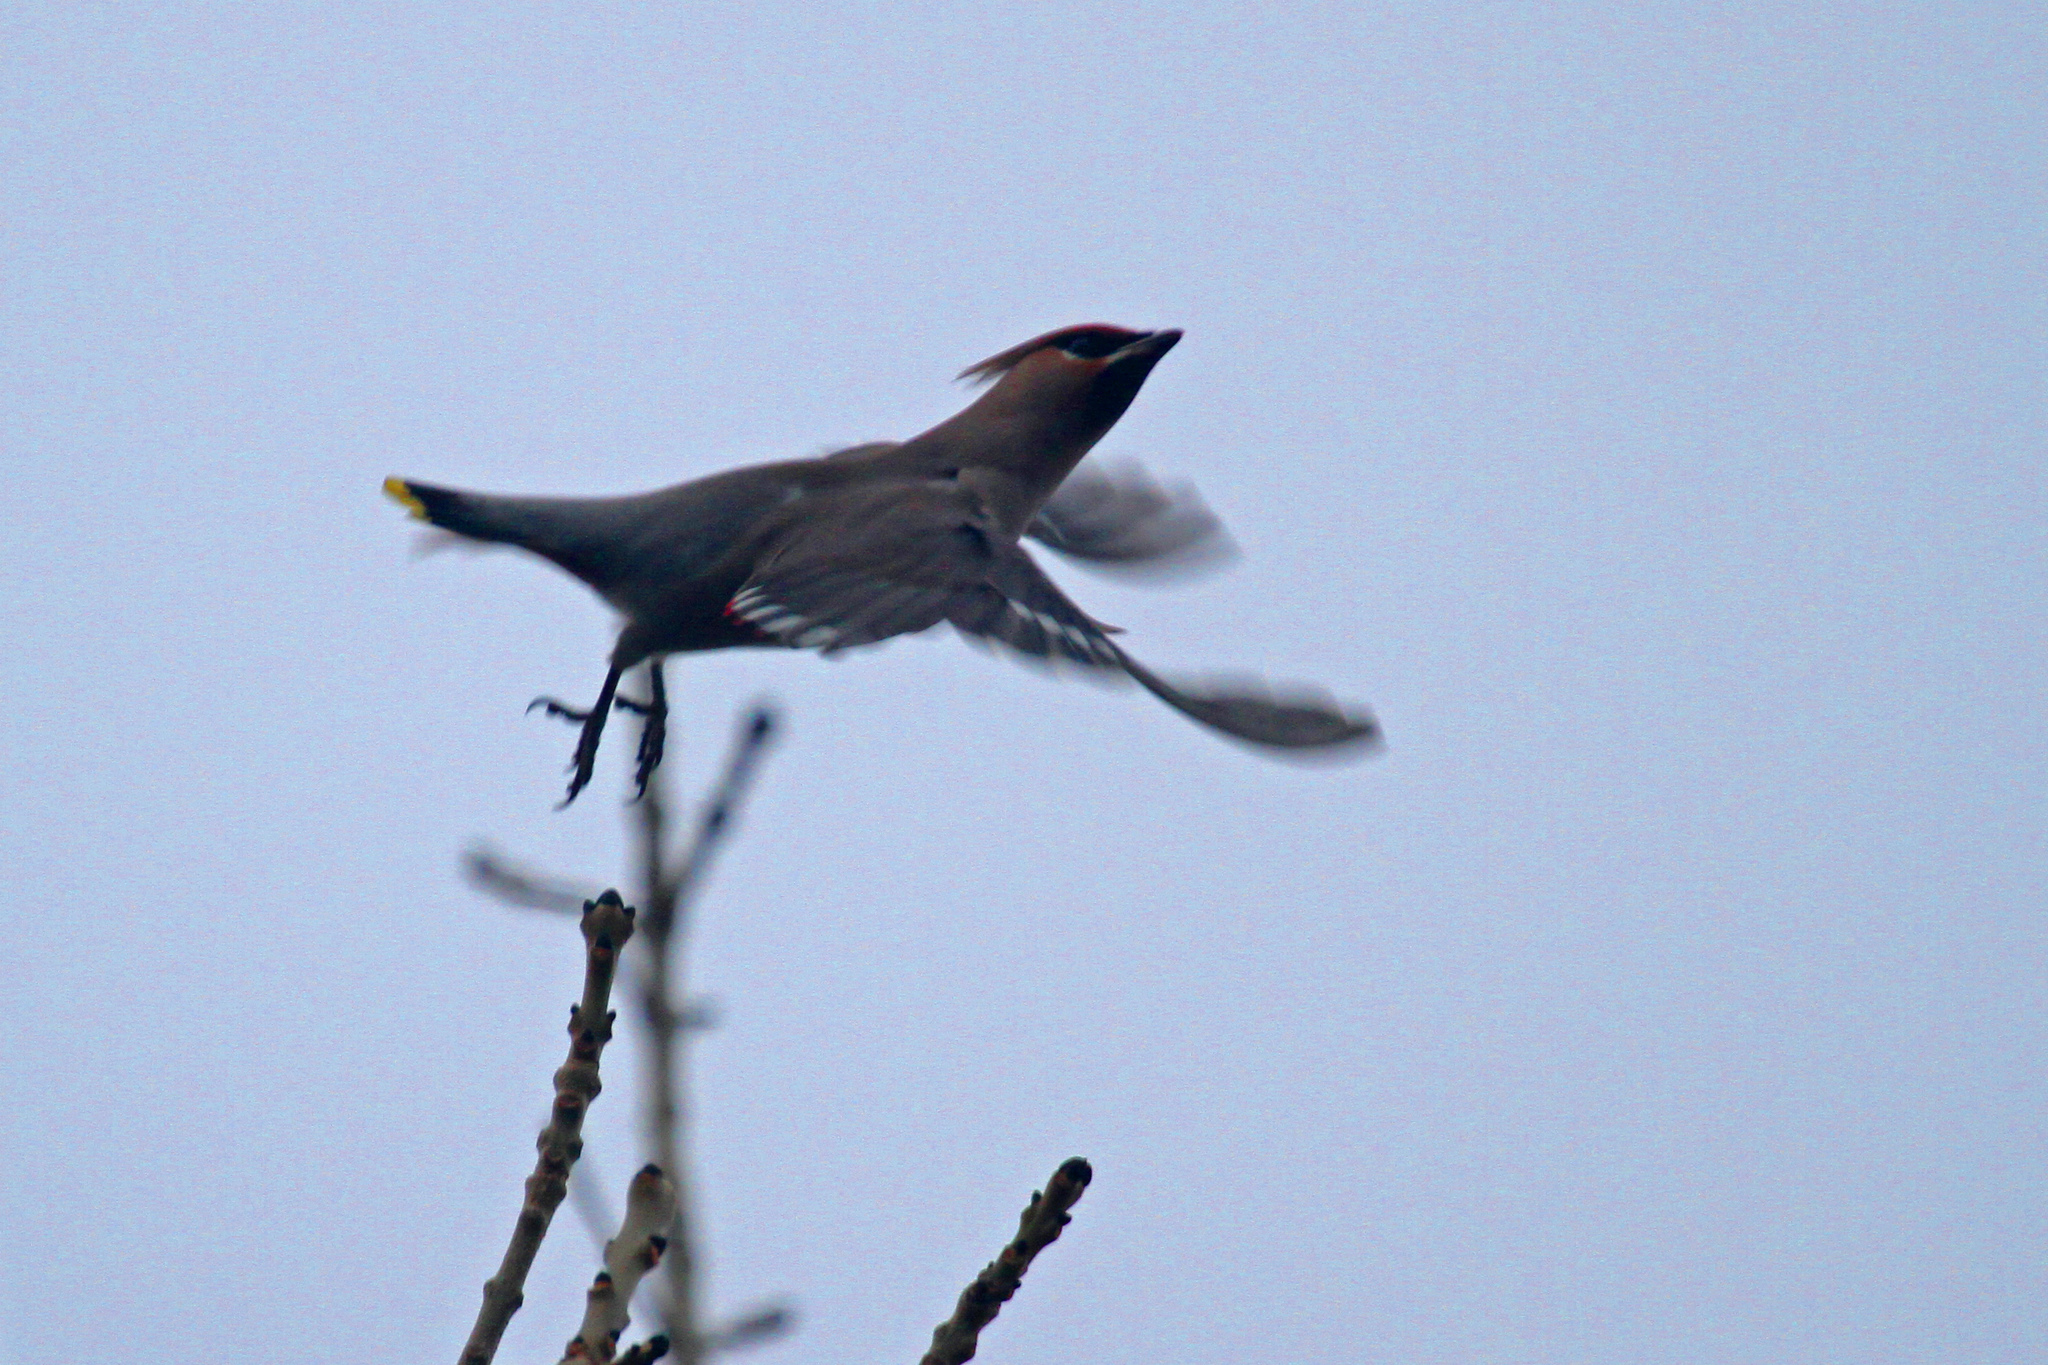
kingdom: Animalia
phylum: Chordata
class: Aves
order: Passeriformes
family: Bombycillidae
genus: Bombycilla
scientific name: Bombycilla garrulus
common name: Bohemian waxwing
